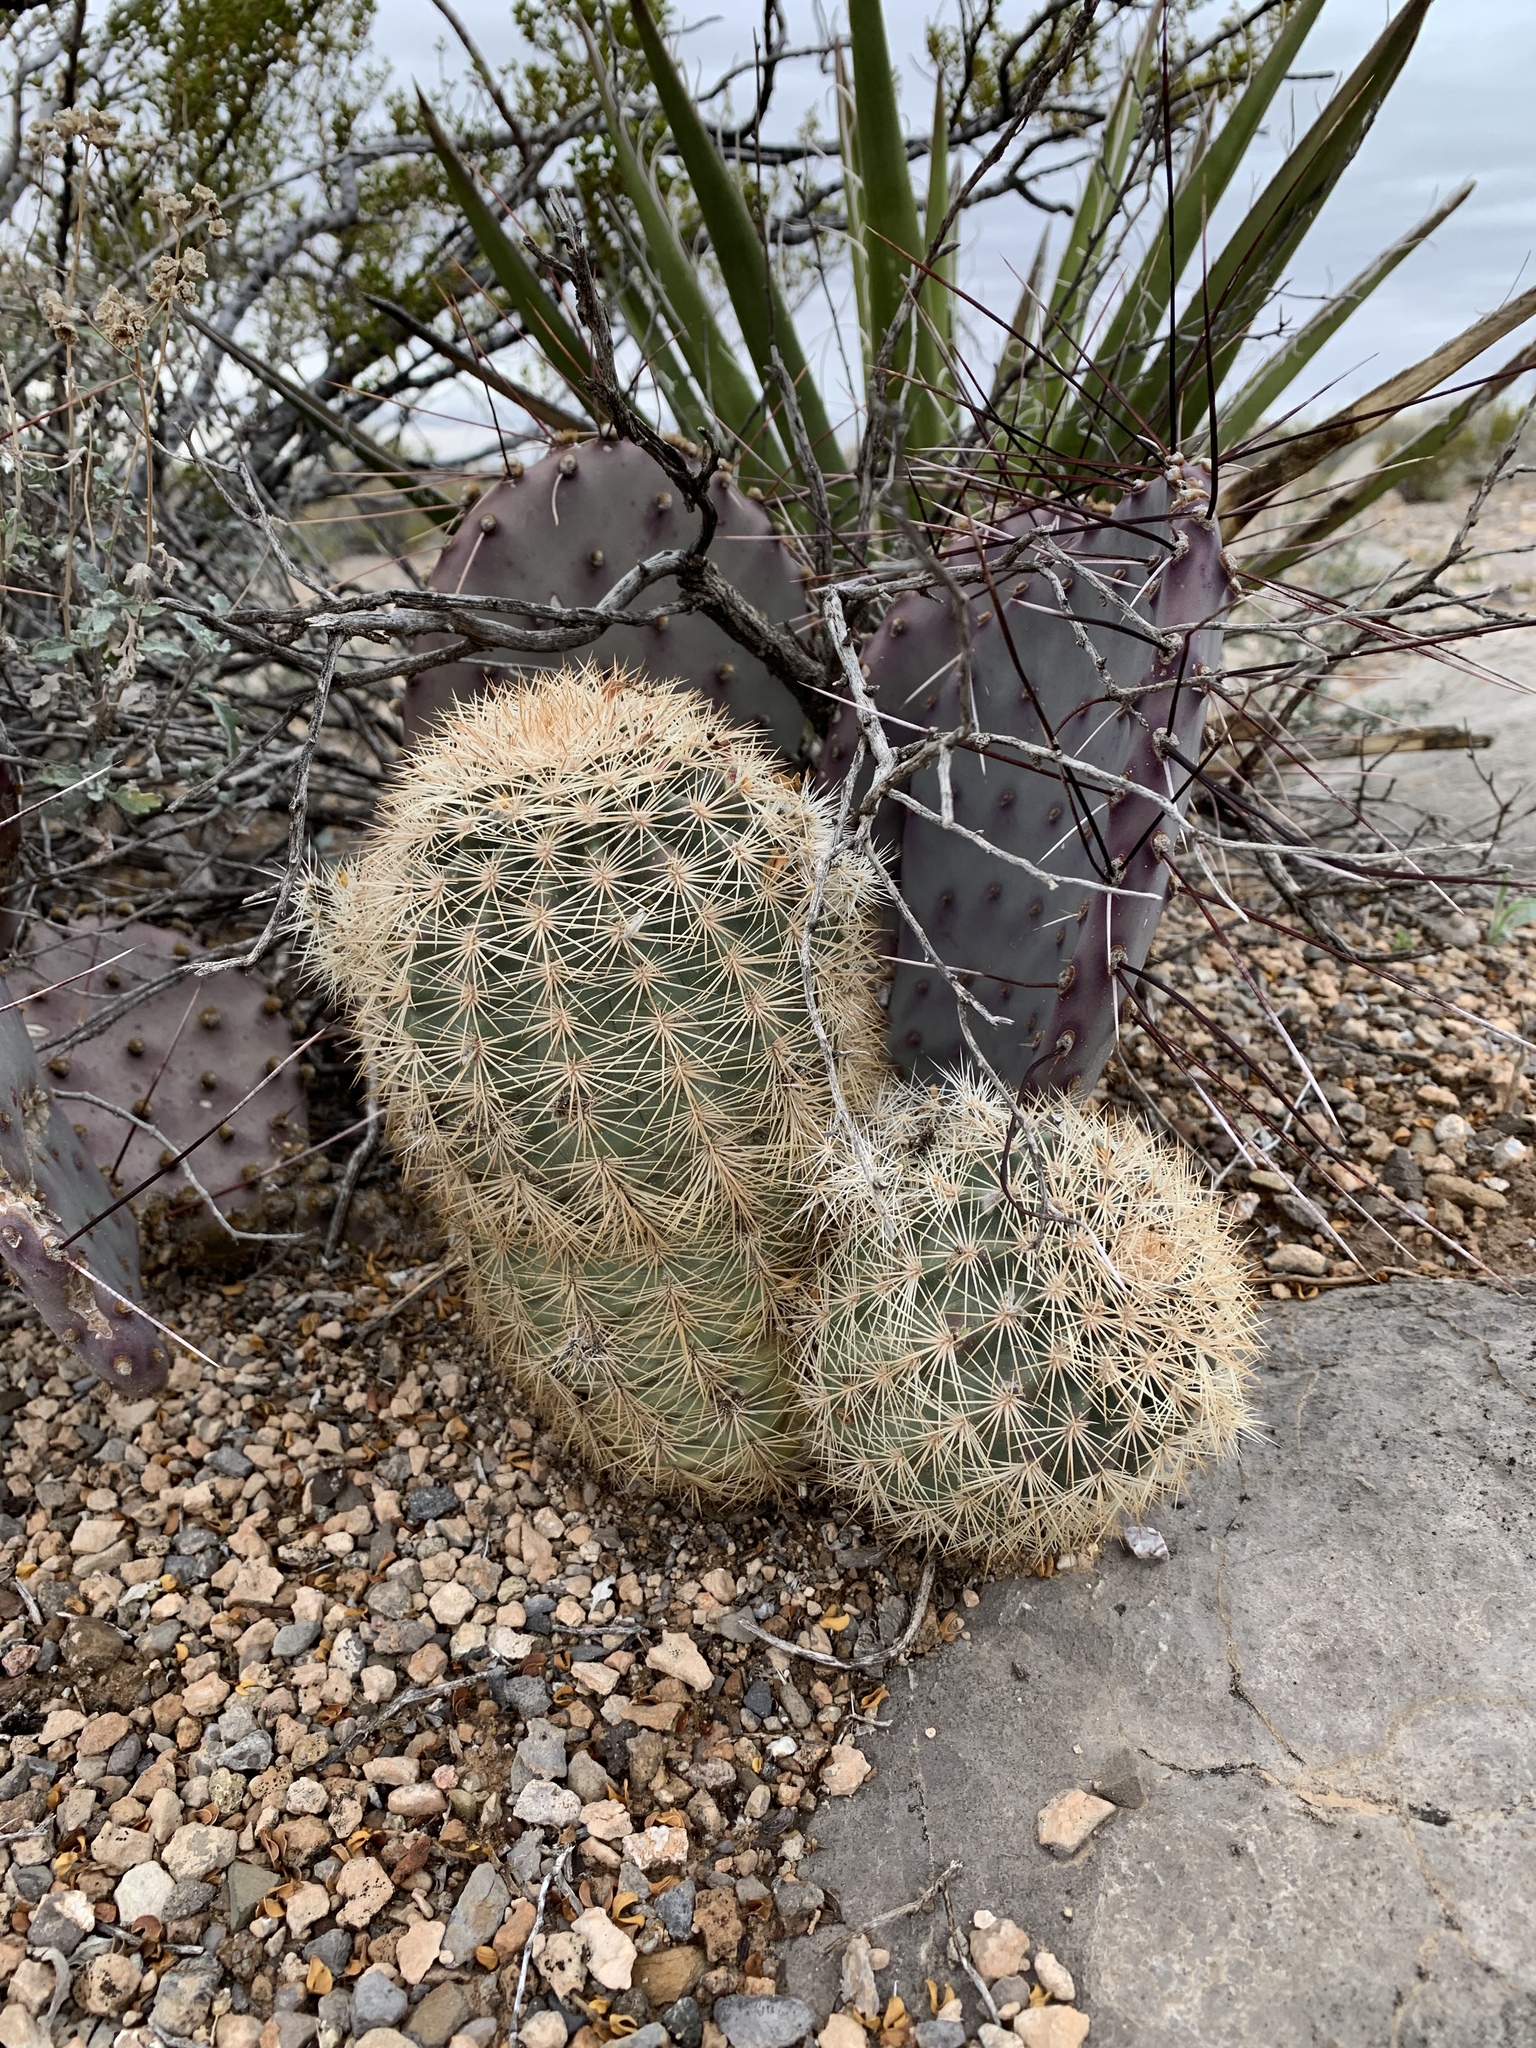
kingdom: Plantae
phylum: Tracheophyta
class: Magnoliopsida
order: Caryophyllales
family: Cactaceae
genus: Echinocereus
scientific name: Echinocereus dasyacanthus
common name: Spiny hedgehog cactus
